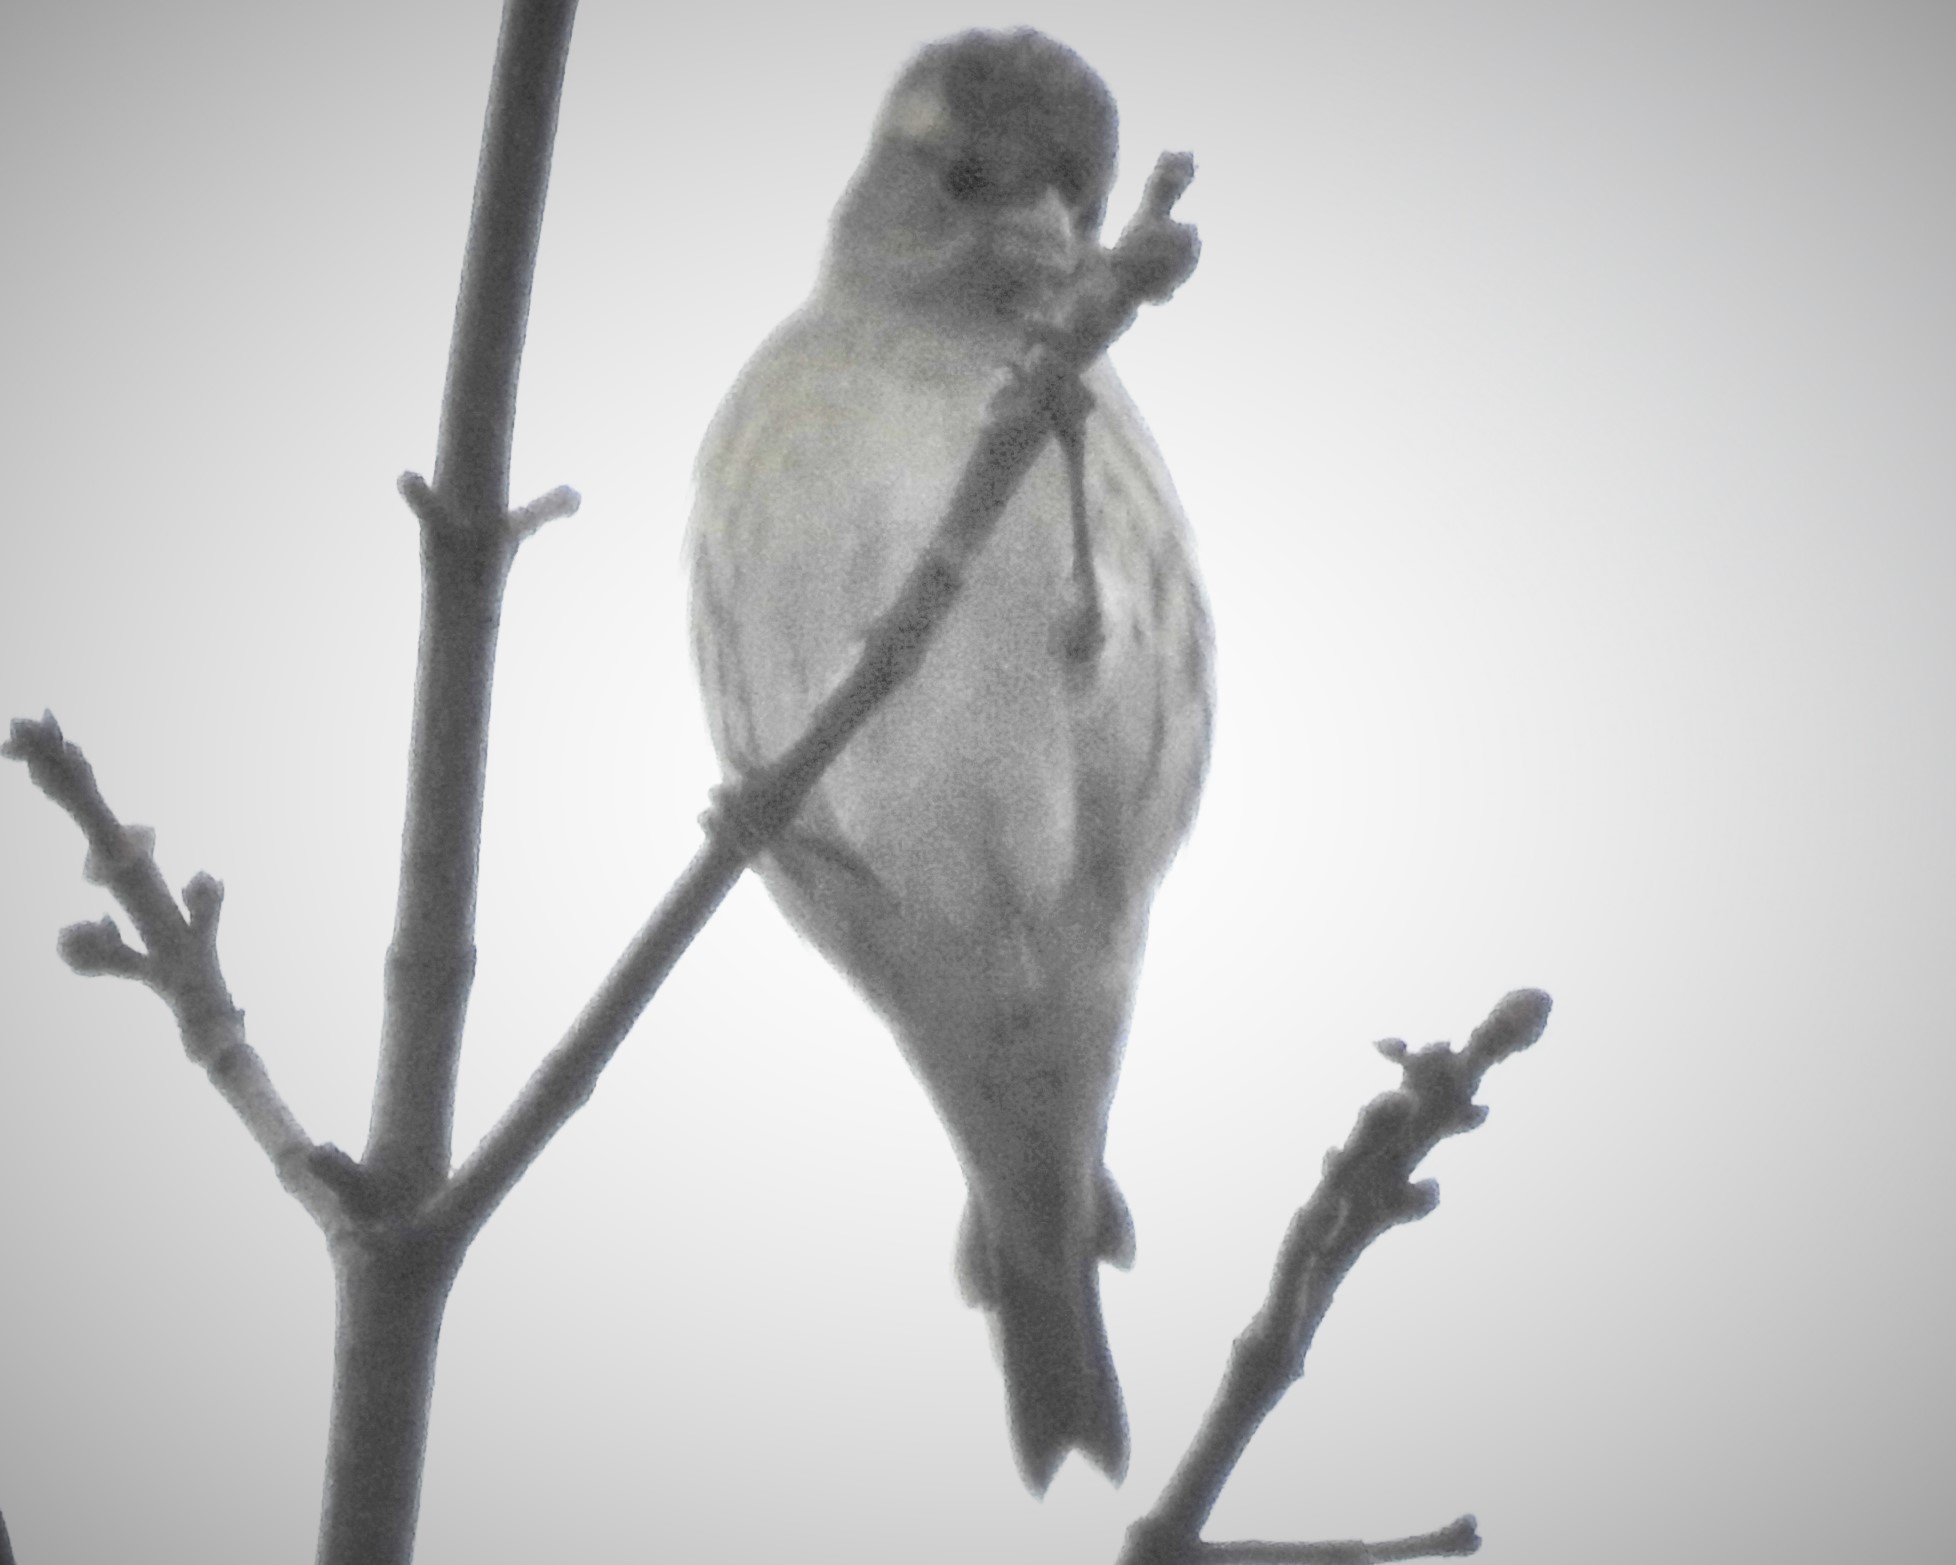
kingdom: Animalia
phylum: Chordata
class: Aves
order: Passeriformes
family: Fringillidae
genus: Spinus
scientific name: Spinus spinus
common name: Eurasian siskin
